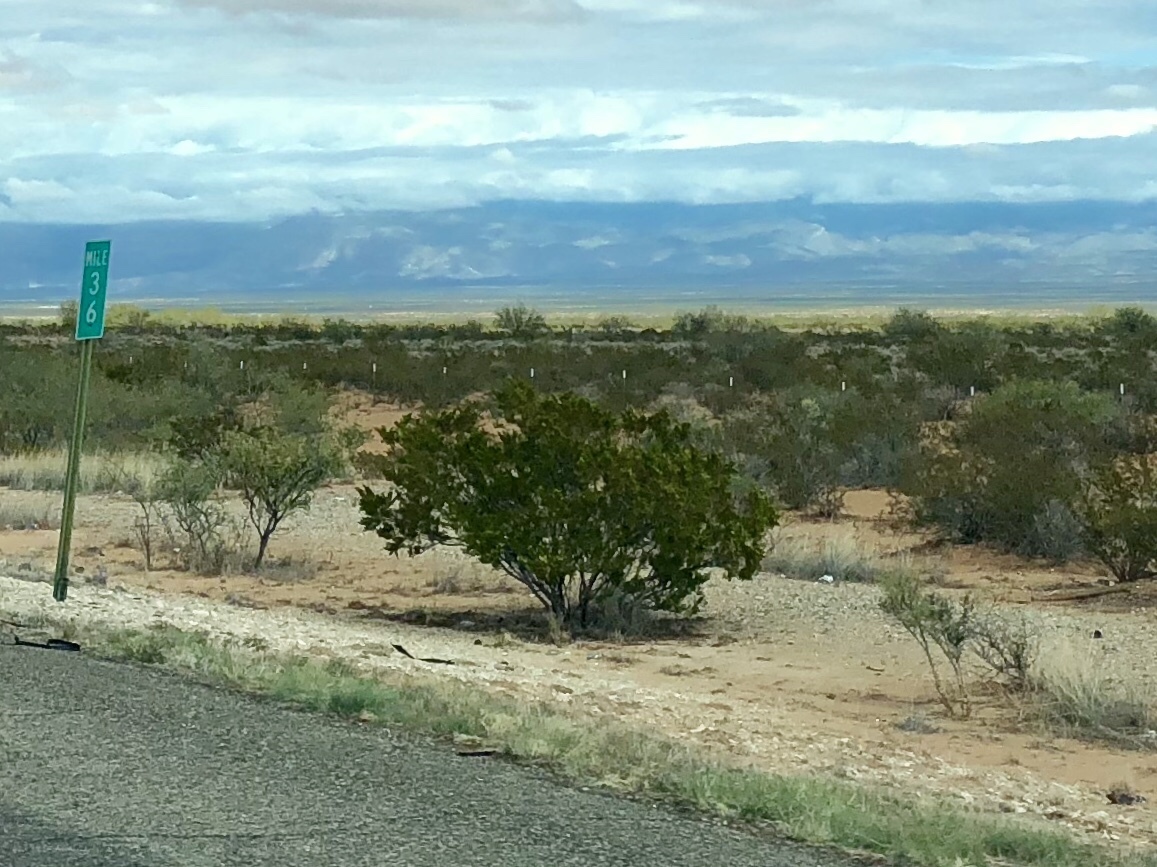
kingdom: Plantae
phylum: Tracheophyta
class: Magnoliopsida
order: Zygophyllales
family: Zygophyllaceae
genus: Larrea
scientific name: Larrea tridentata
